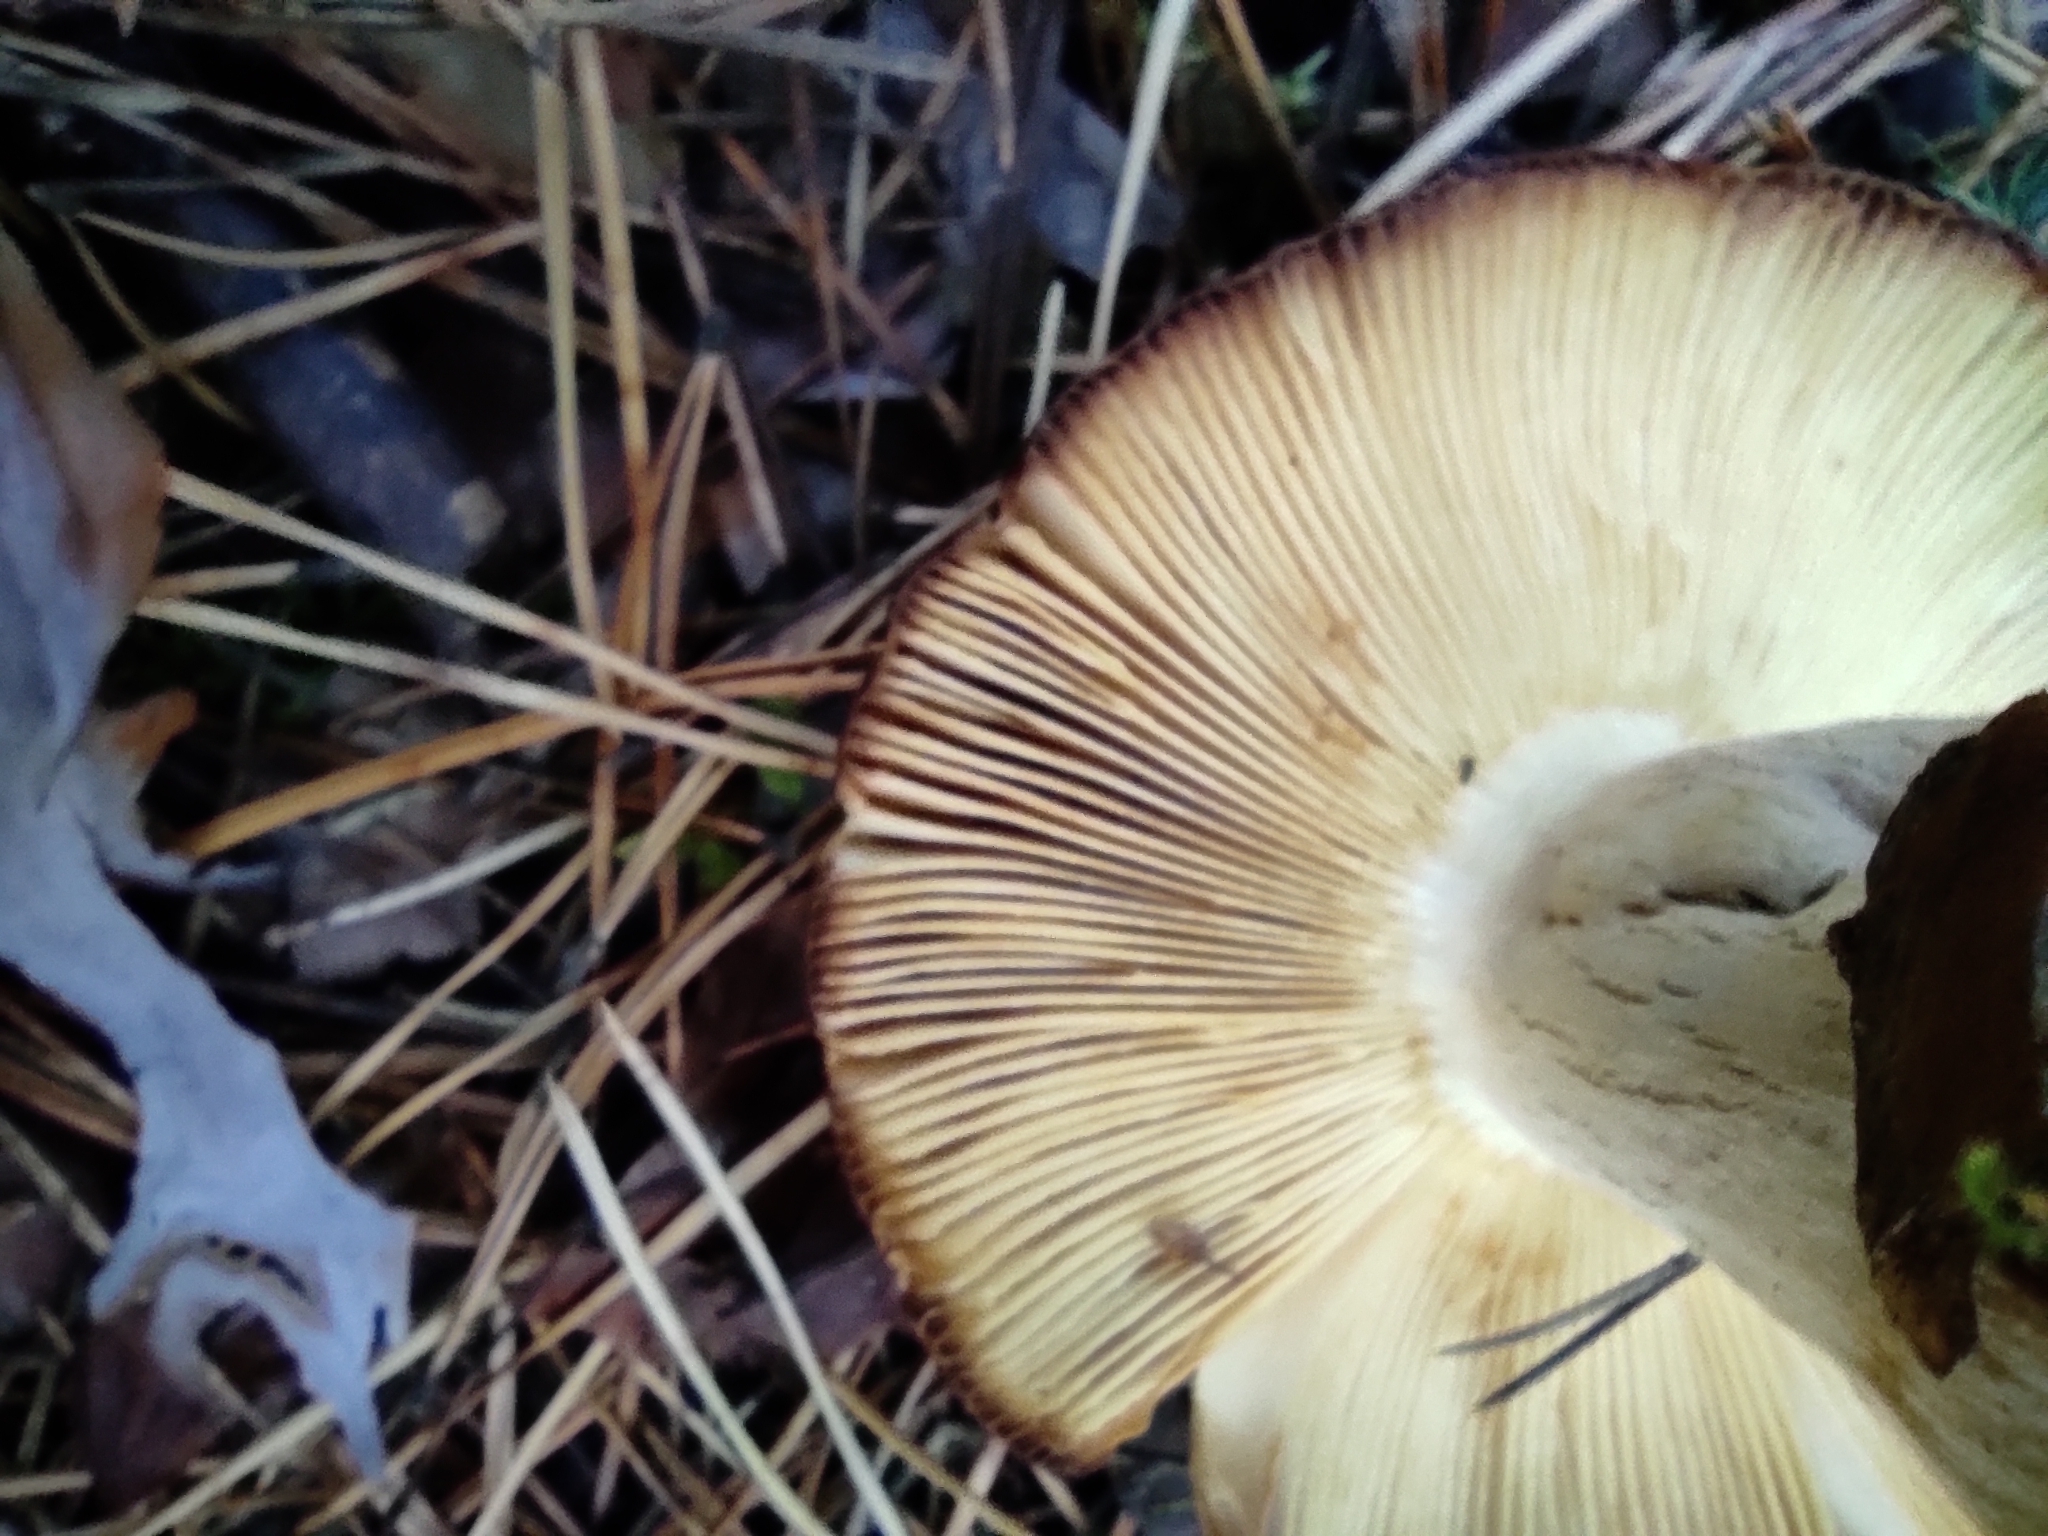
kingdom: Fungi
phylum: Basidiomycota
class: Agaricomycetes
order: Russulales
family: Russulaceae
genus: Russula
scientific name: Russula foetens
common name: Foetid russula
